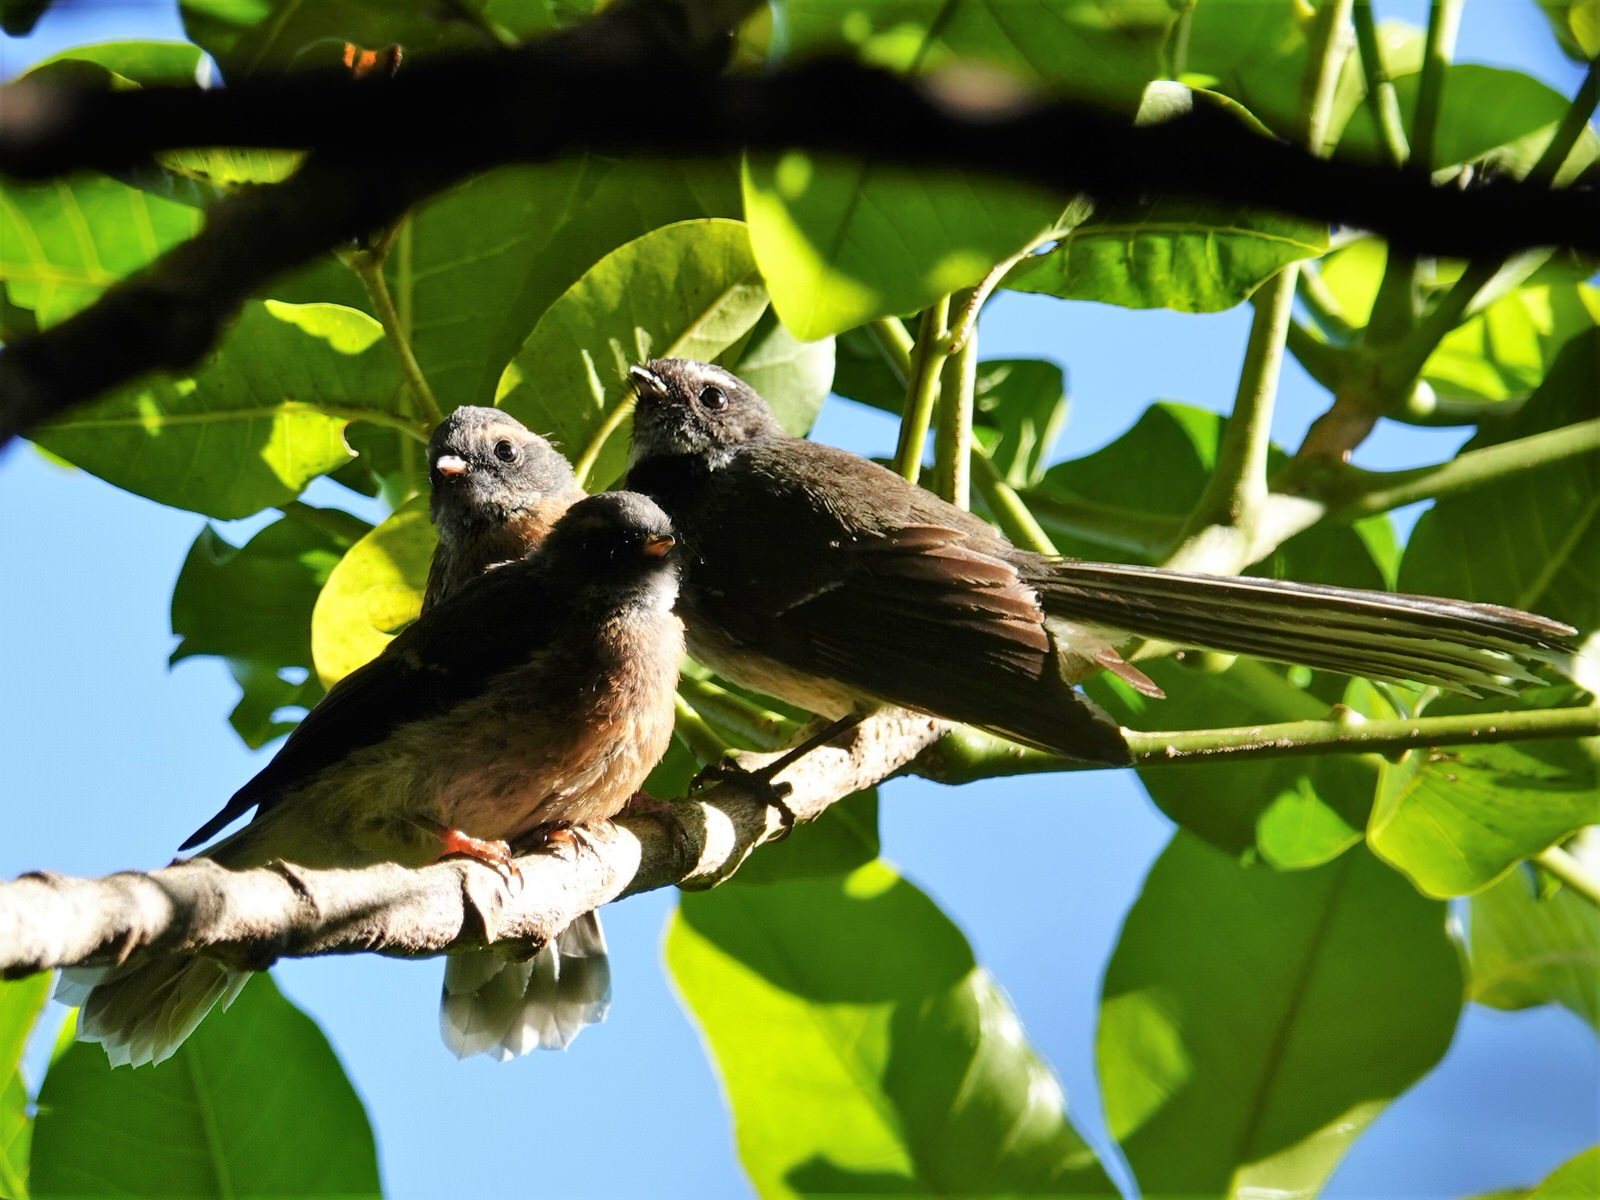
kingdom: Animalia
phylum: Chordata
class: Aves
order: Passeriformes
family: Rhipiduridae
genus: Rhipidura
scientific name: Rhipidura fuliginosa
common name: New zealand fantail
